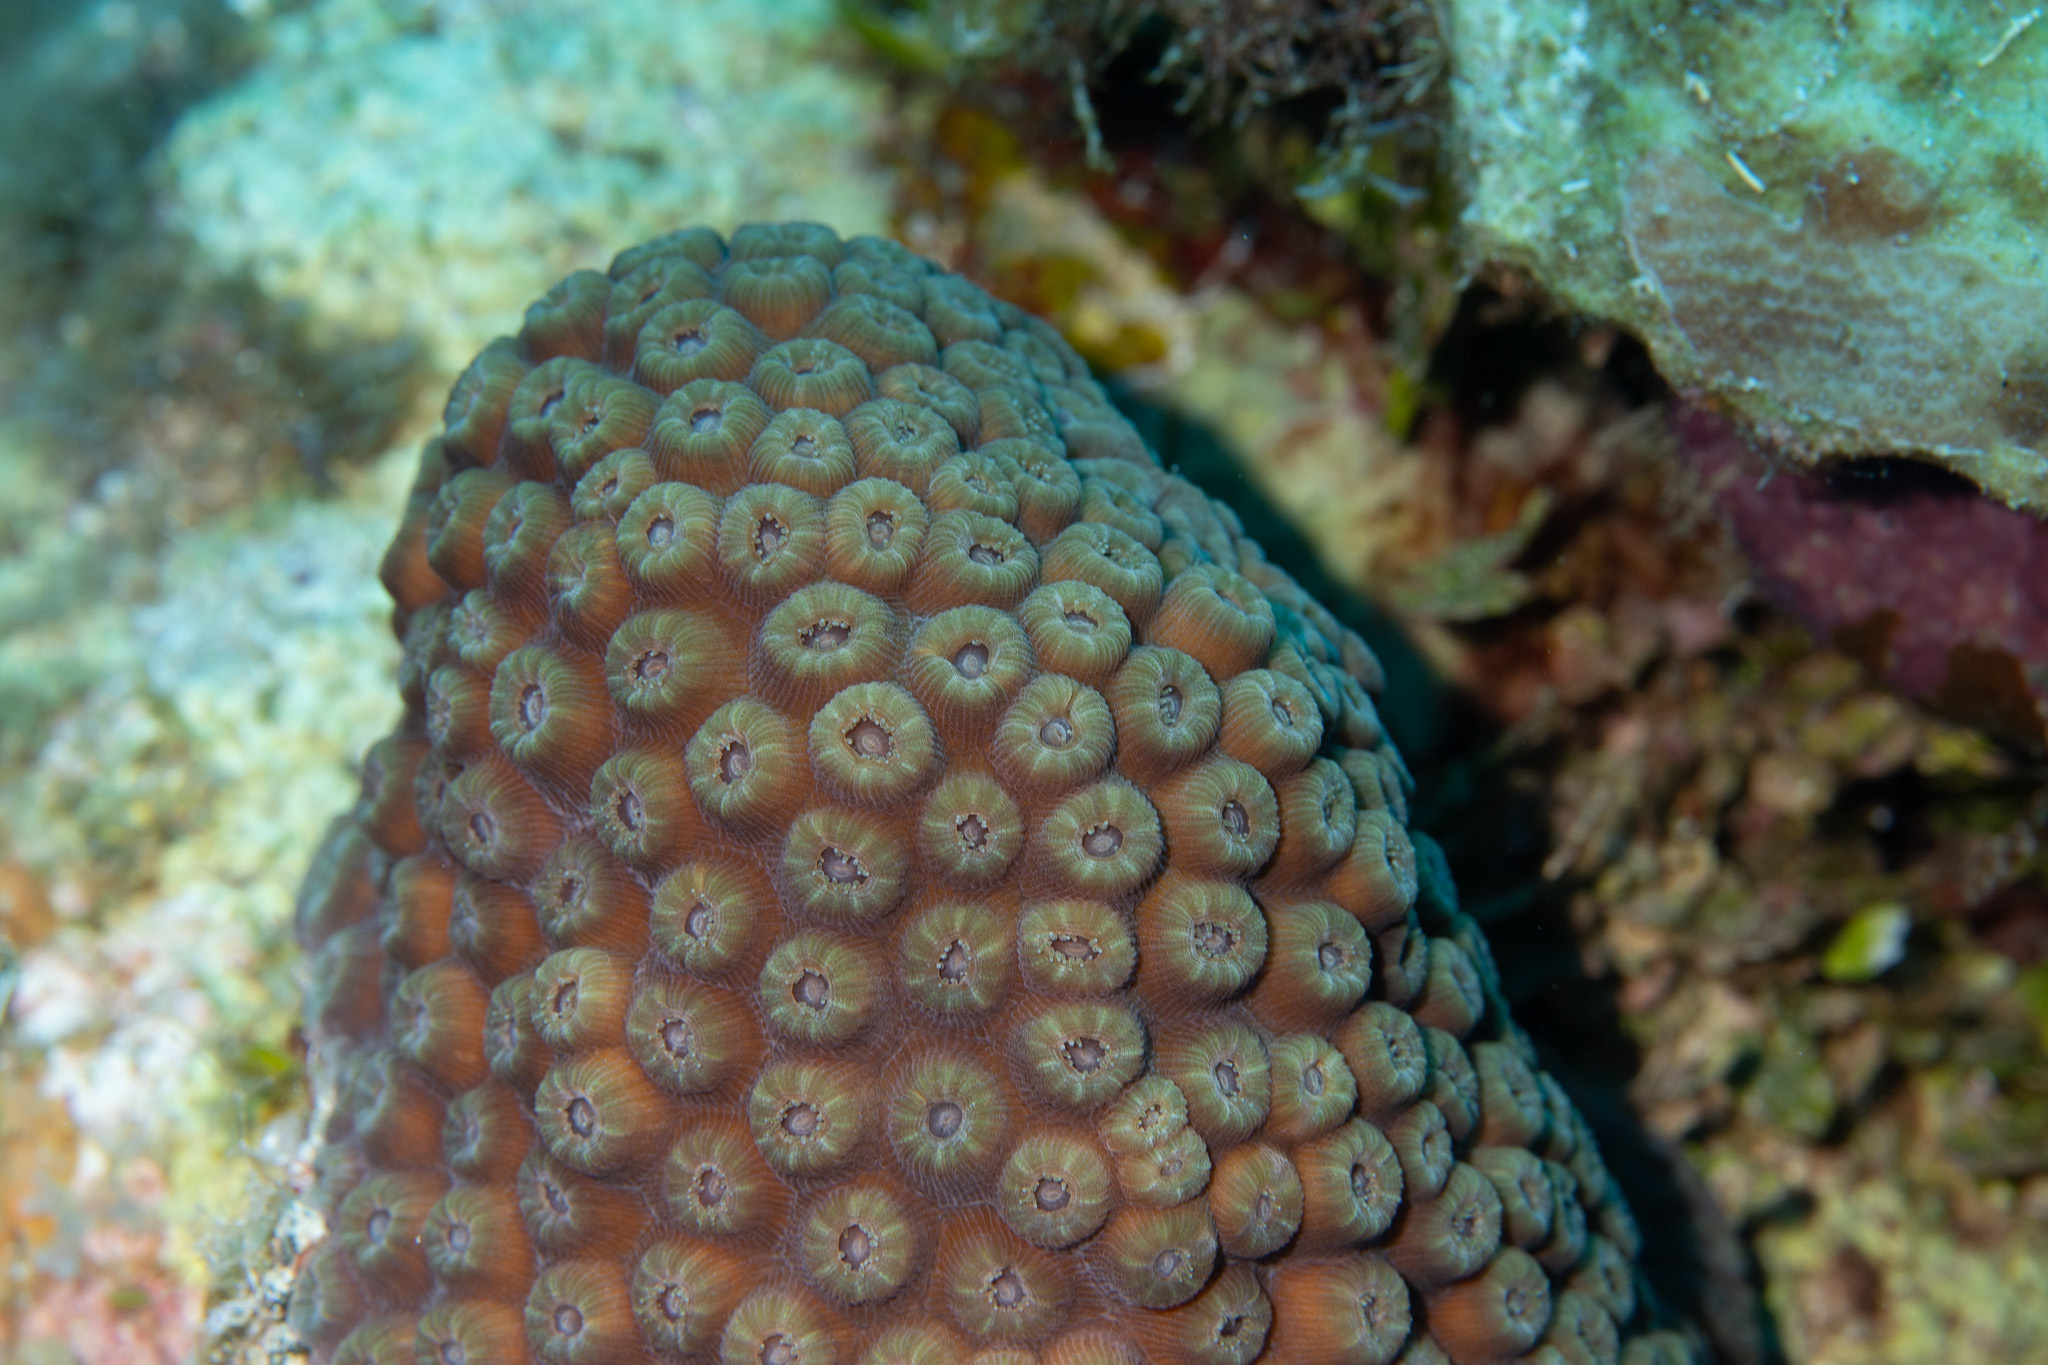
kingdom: Animalia
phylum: Cnidaria
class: Anthozoa
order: Scleractinia
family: Montastraeidae
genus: Montastraea
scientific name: Montastraea cavernosa
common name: Great star coral
